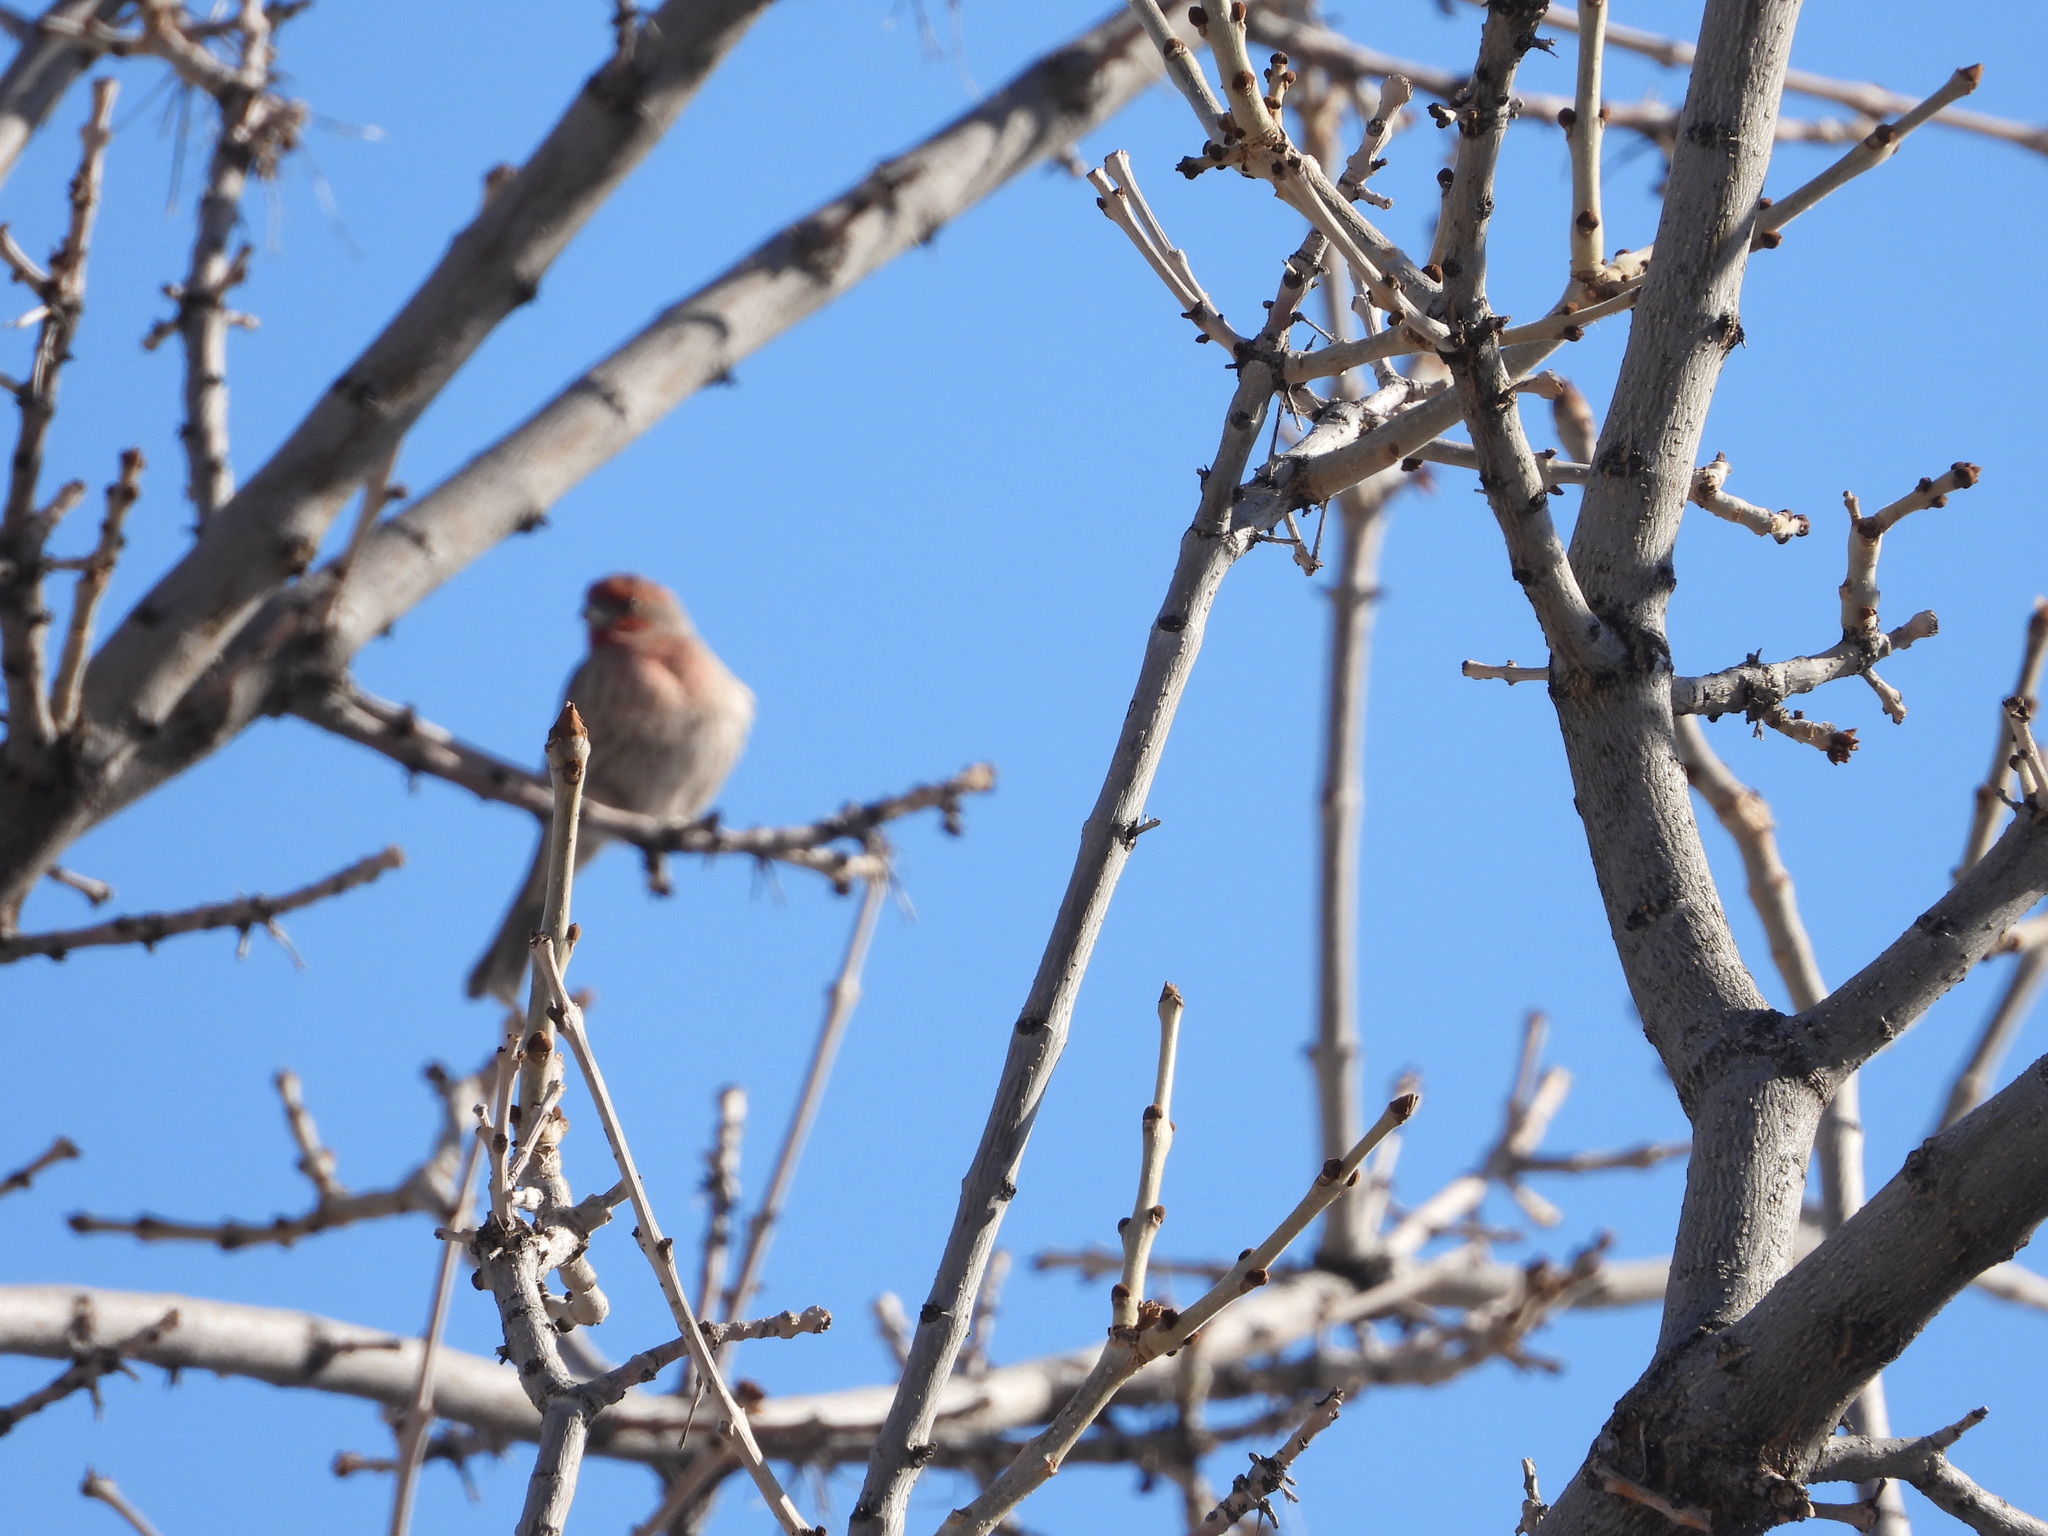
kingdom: Animalia
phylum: Chordata
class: Aves
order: Passeriformes
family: Fringillidae
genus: Haemorhous
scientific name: Haemorhous mexicanus
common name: House finch
